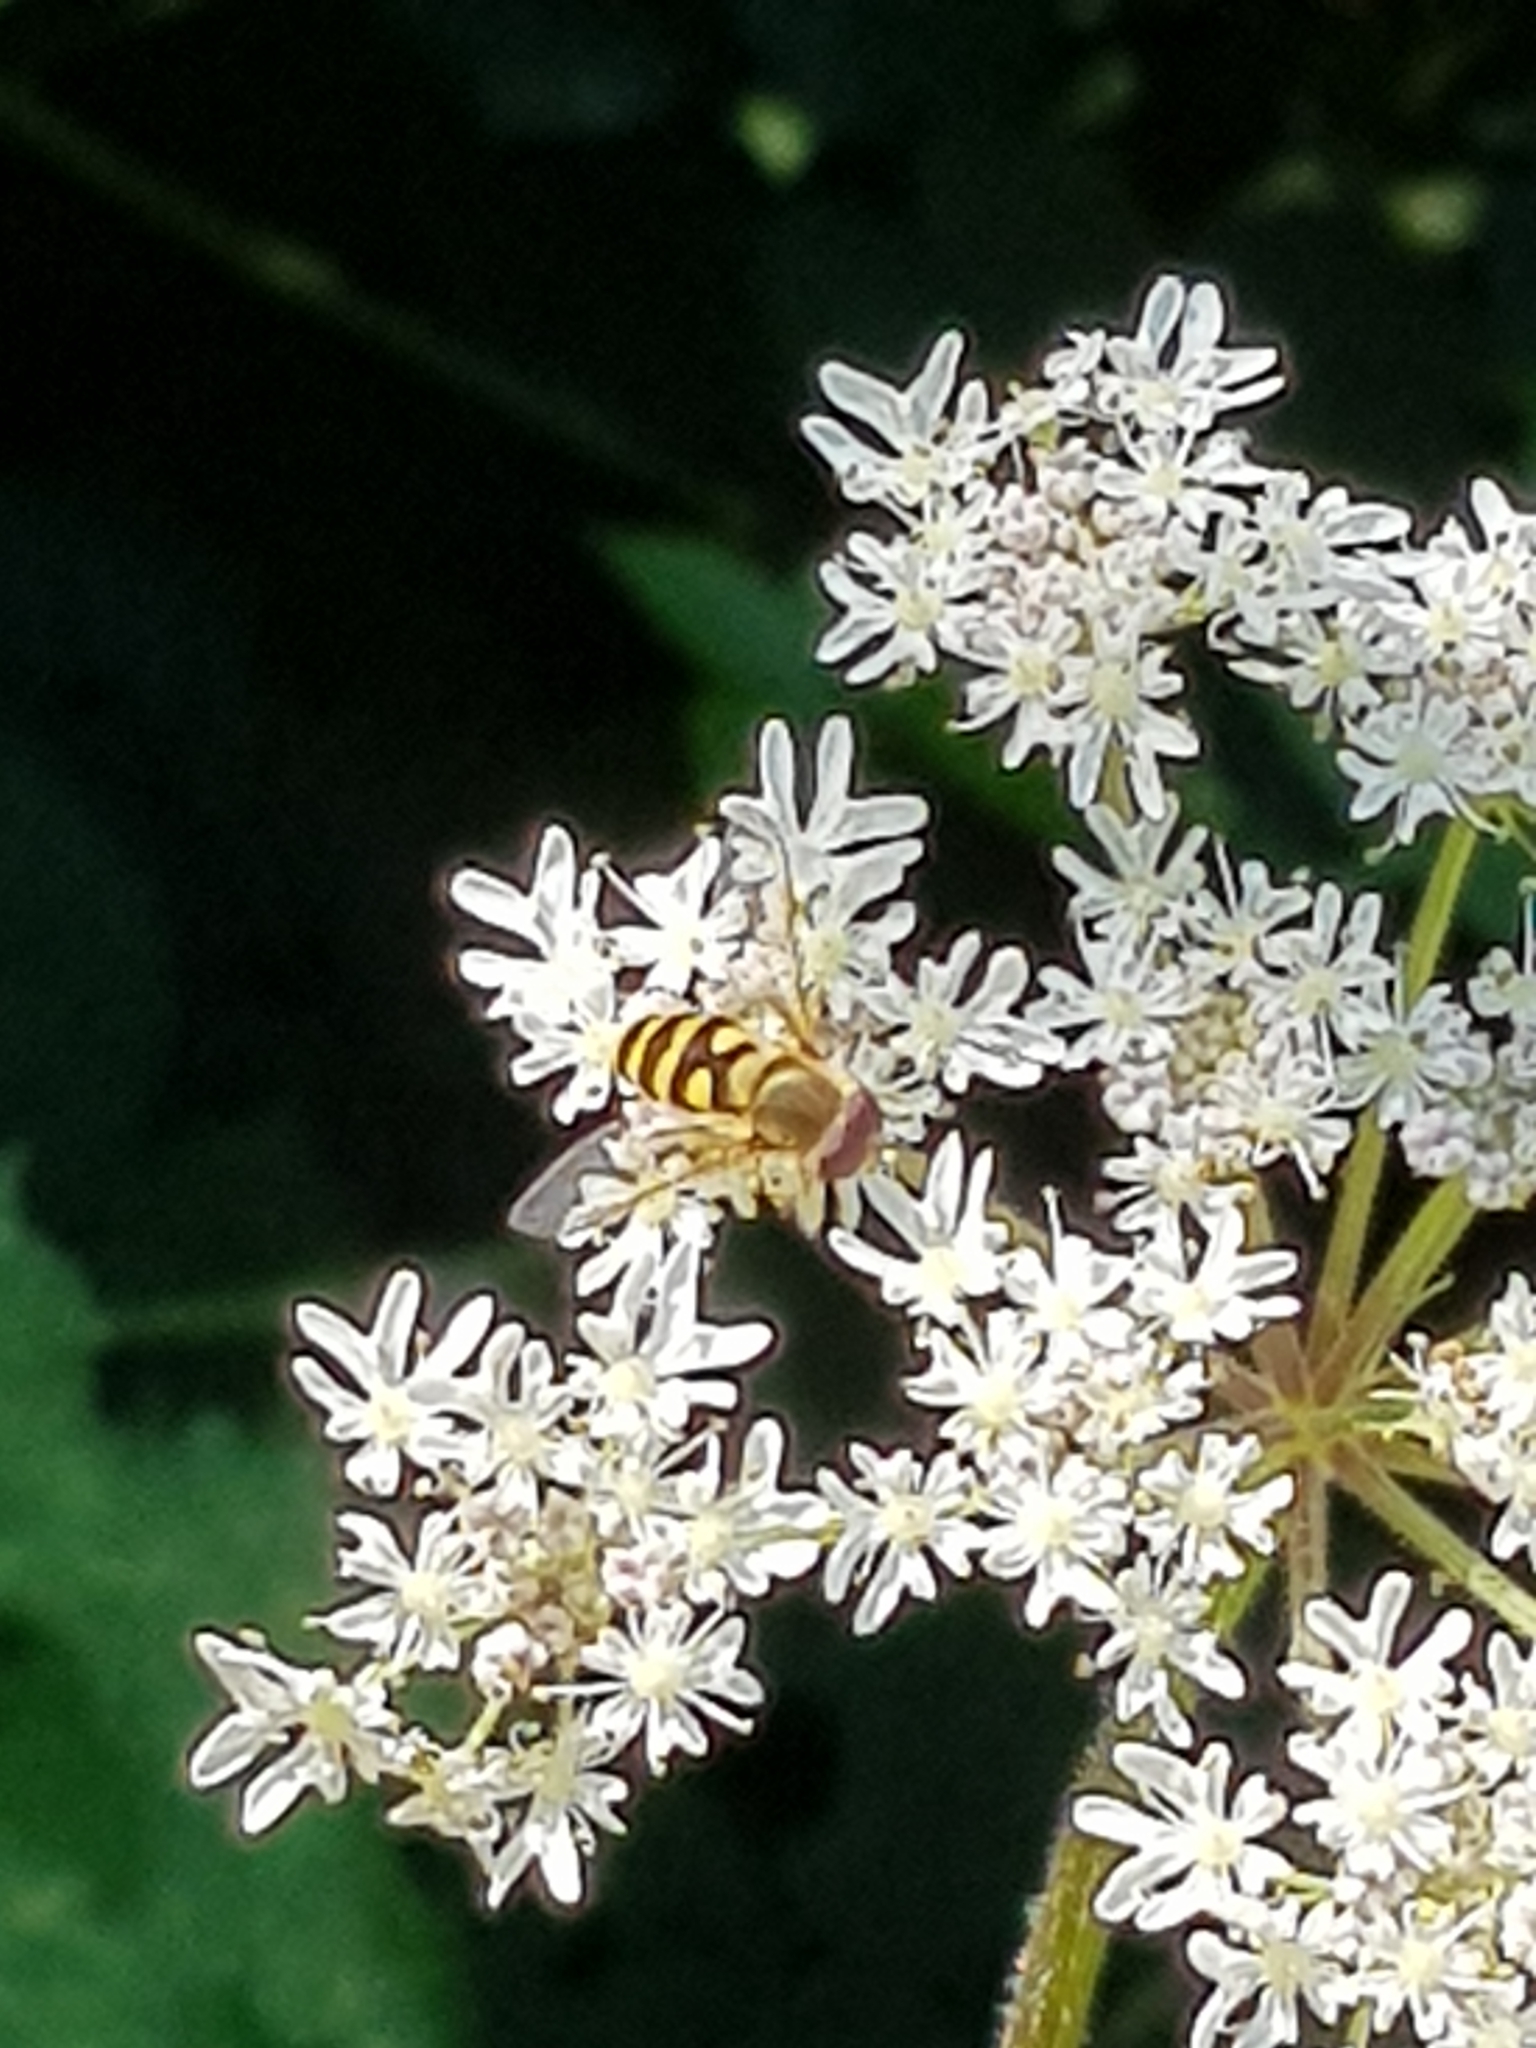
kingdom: Animalia
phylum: Arthropoda
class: Insecta
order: Diptera
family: Syrphidae
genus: Syrphus
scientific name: Syrphus
